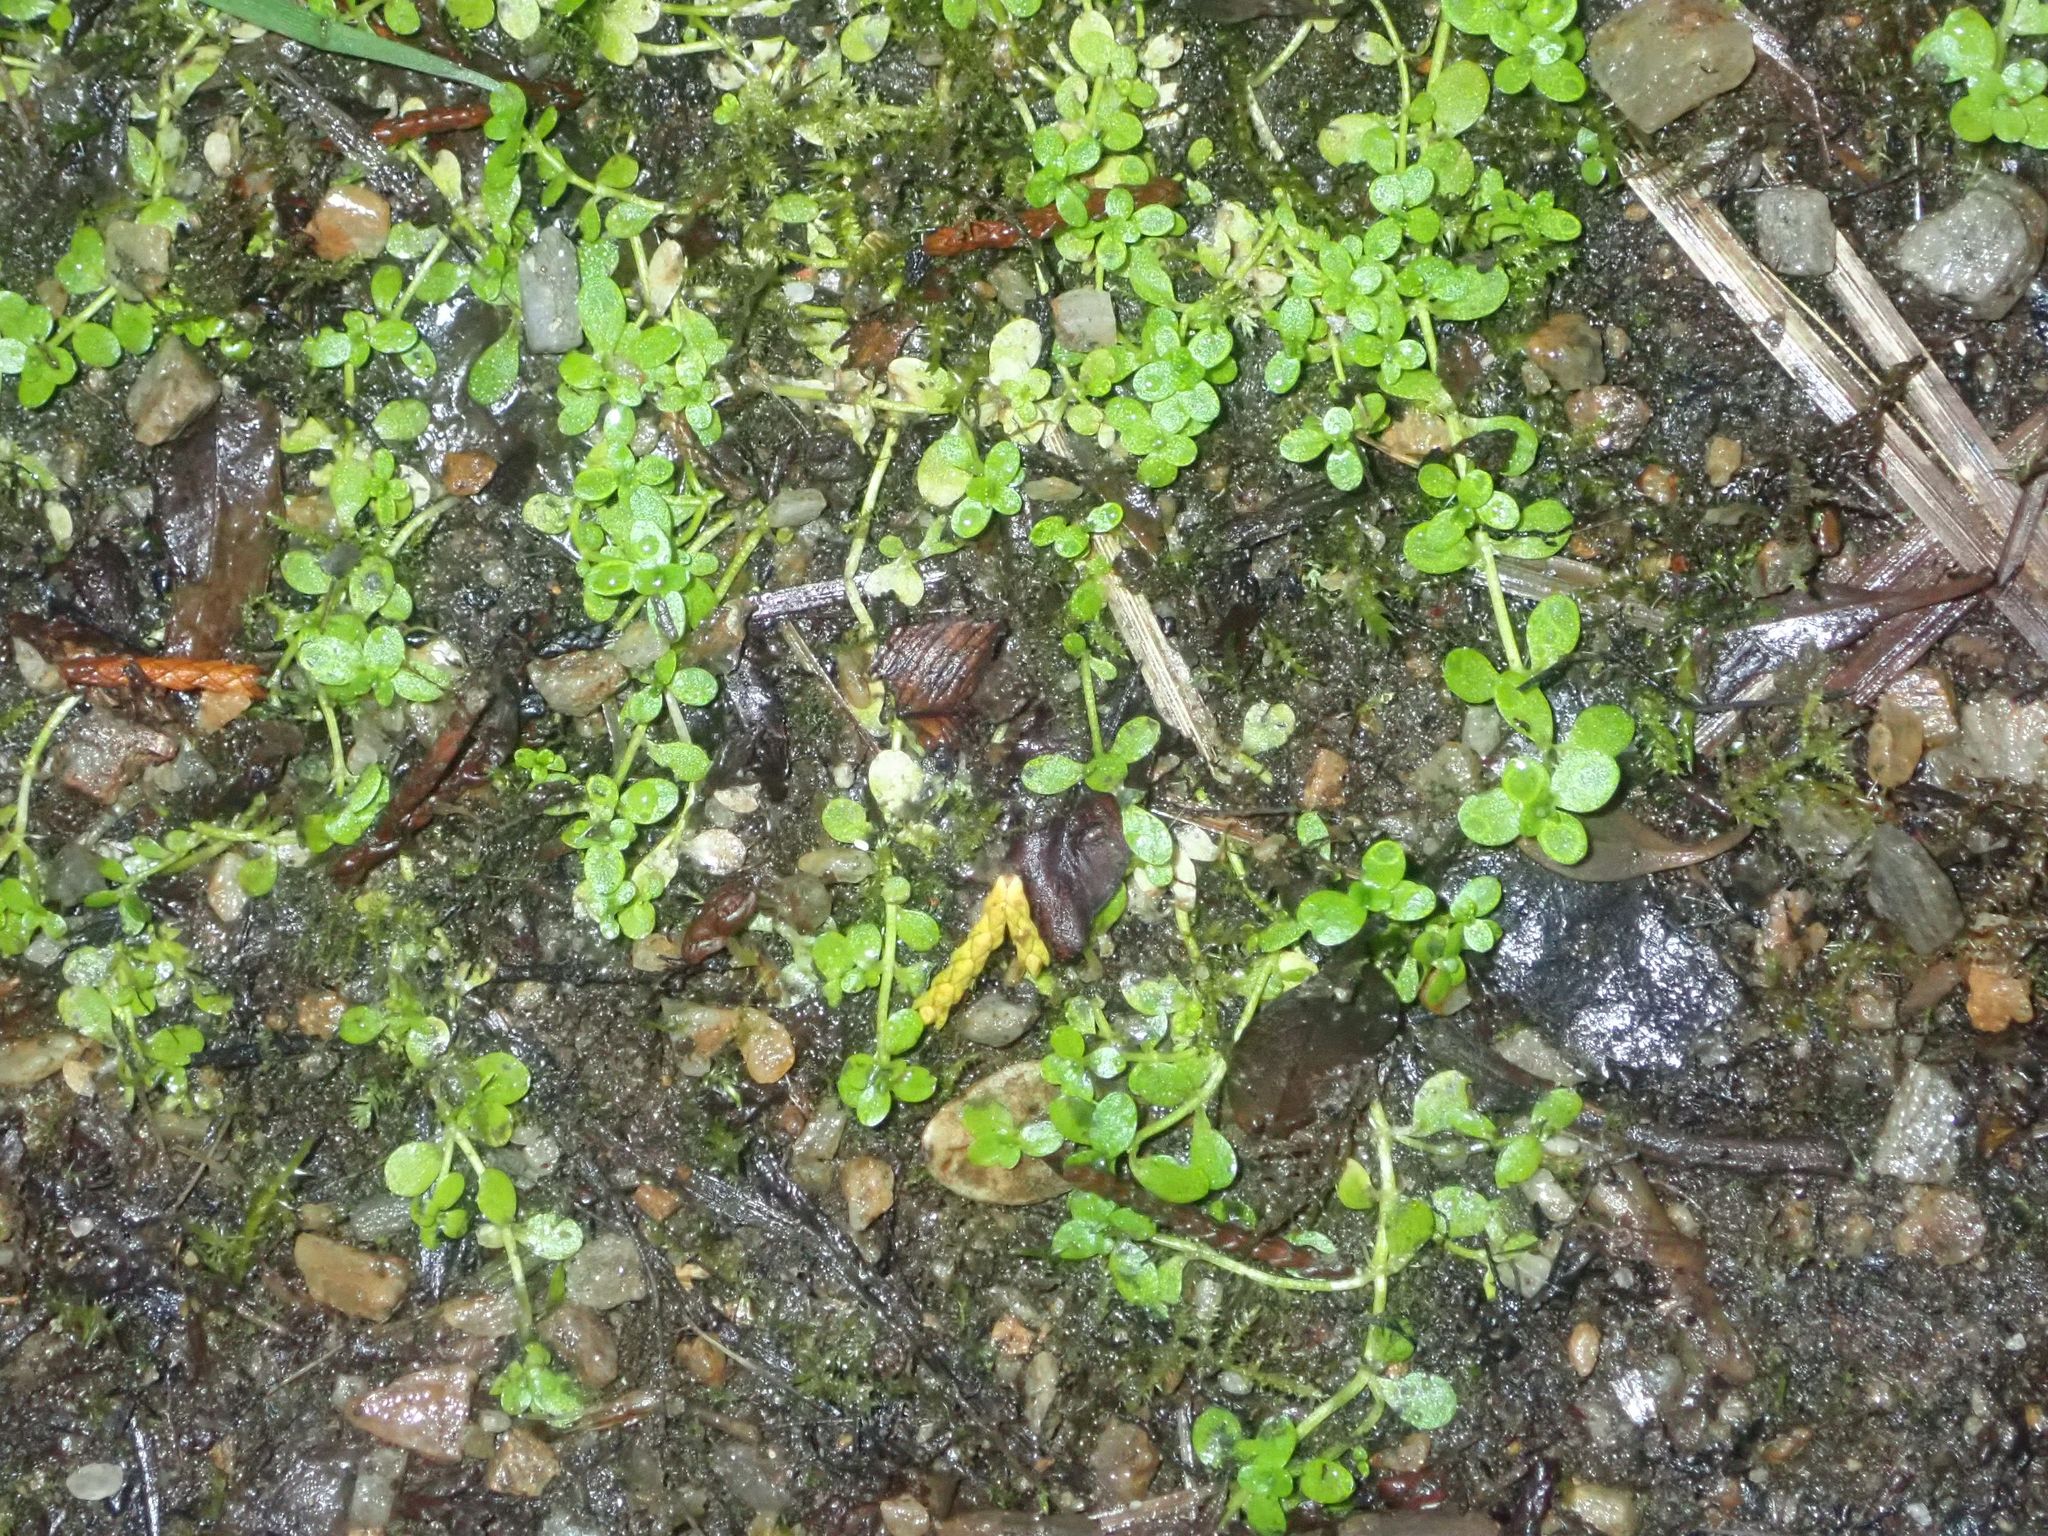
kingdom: Plantae
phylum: Tracheophyta
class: Magnoliopsida
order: Lamiales
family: Plantaginaceae
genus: Callitriche
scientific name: Callitriche stagnalis
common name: Common water-starwort
